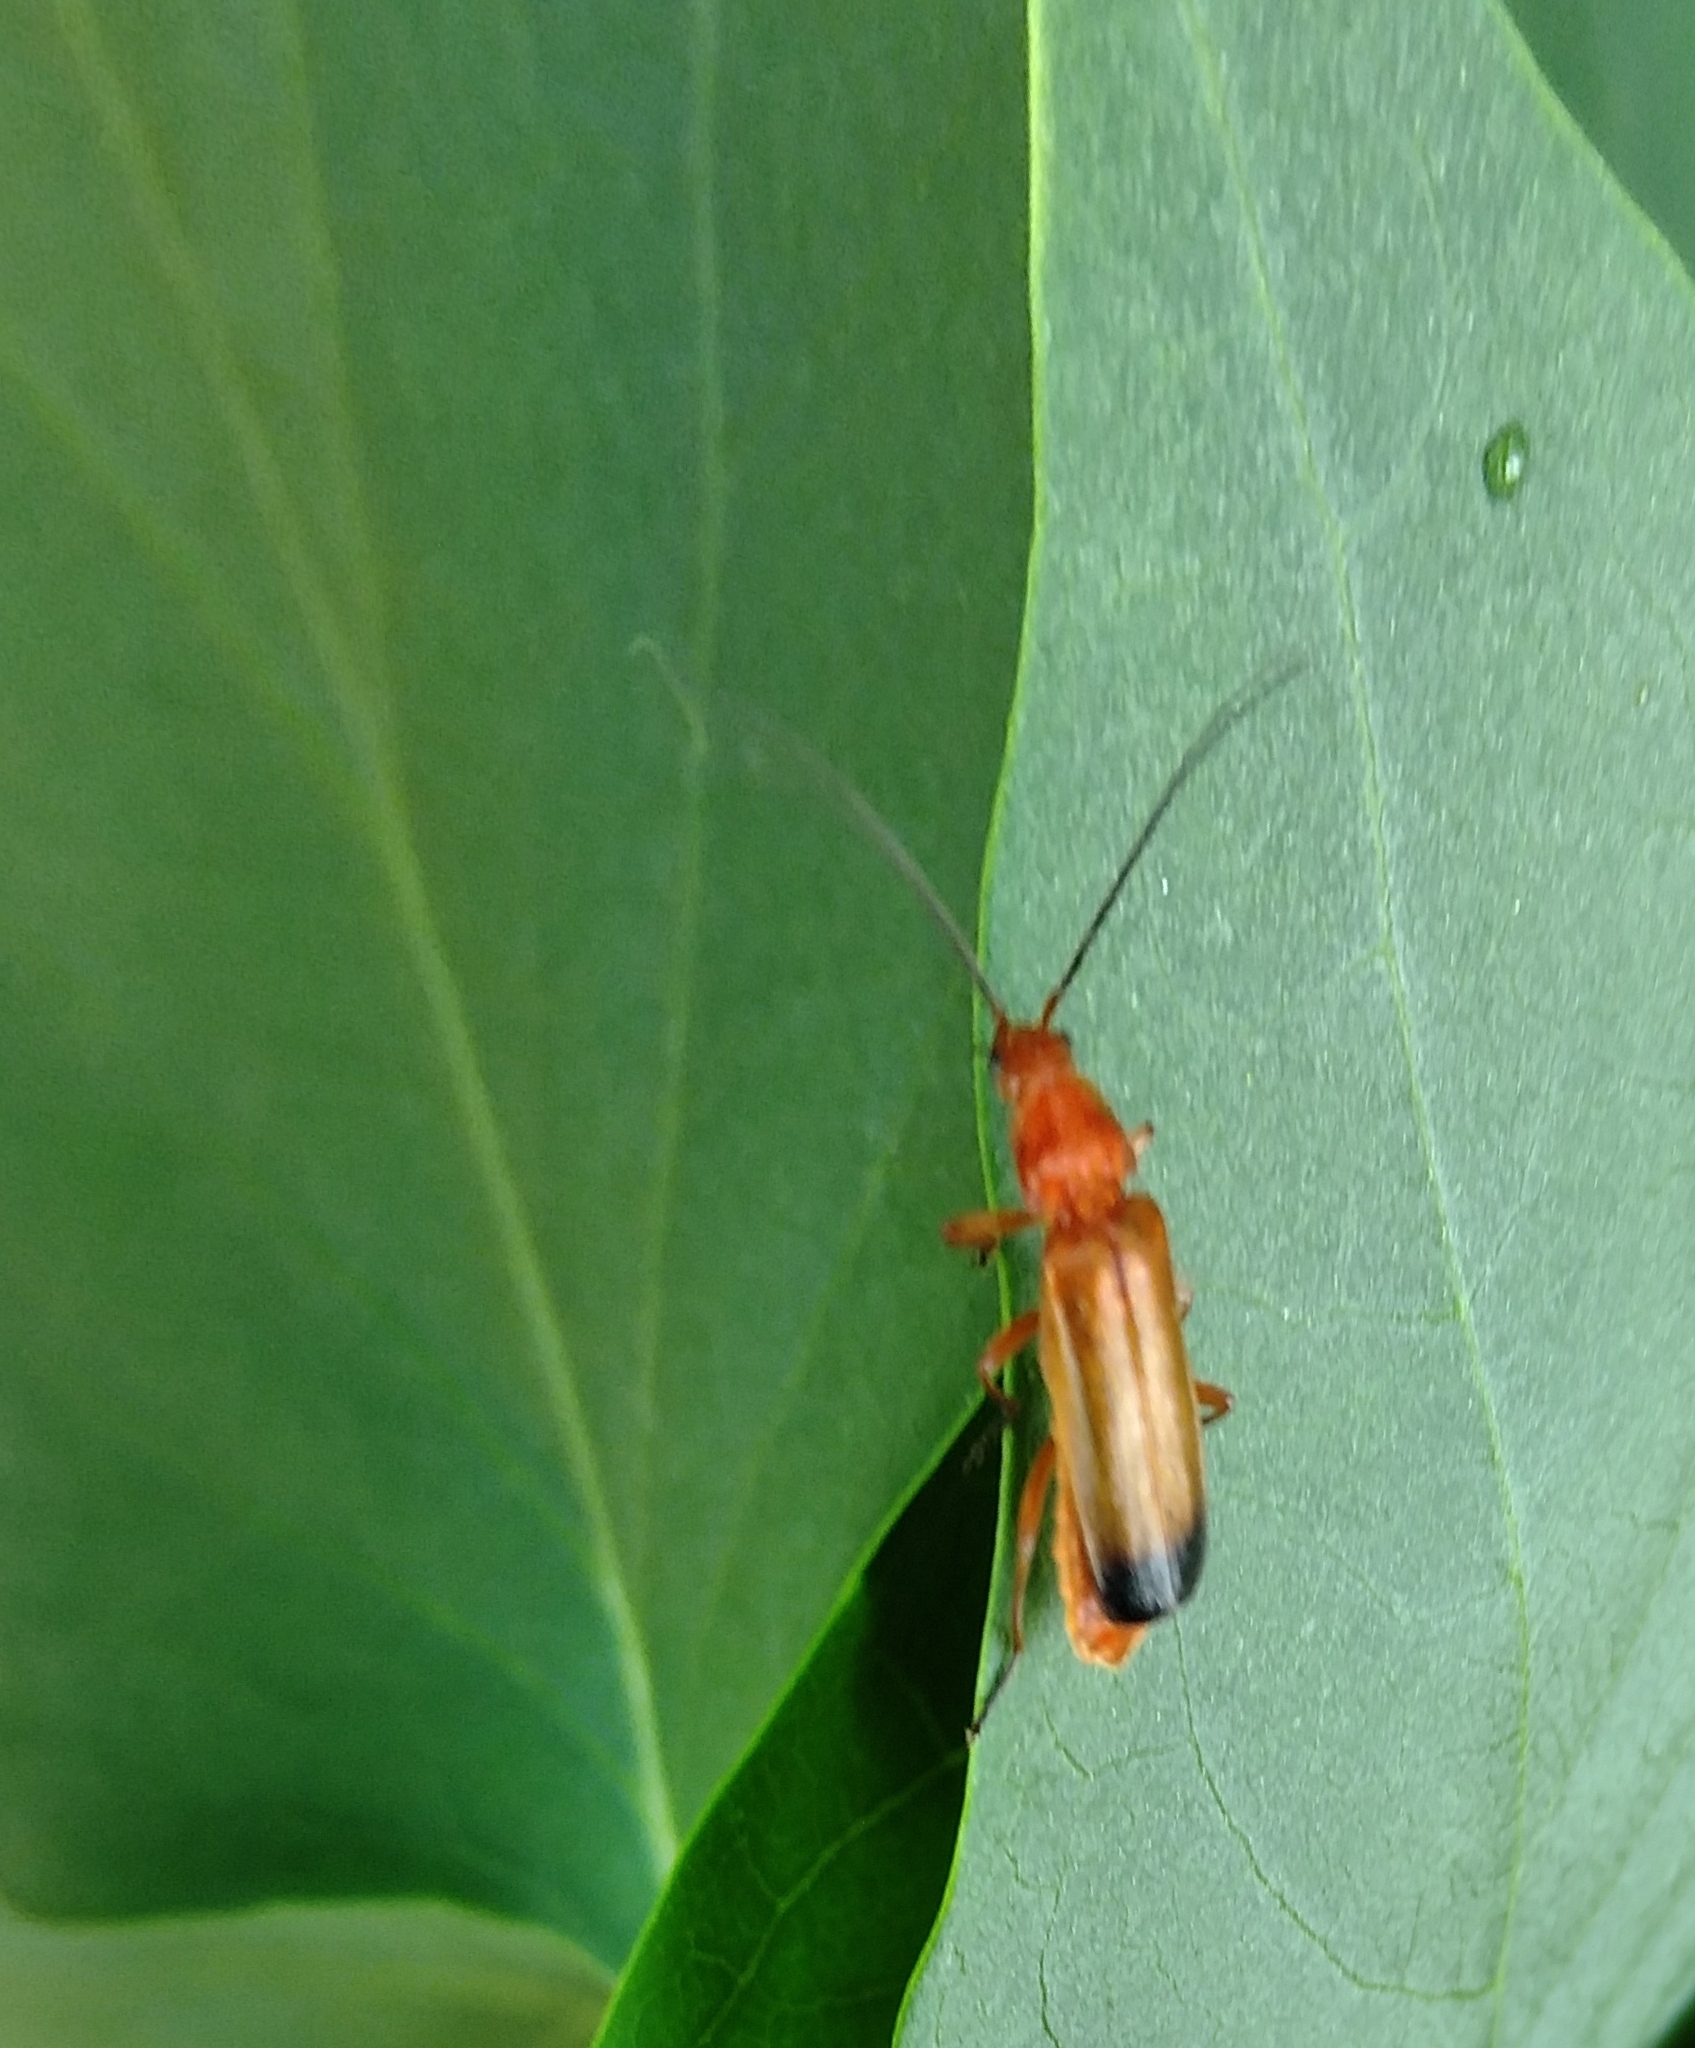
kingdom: Animalia
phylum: Arthropoda
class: Insecta
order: Coleoptera
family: Cantharidae
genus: Rhagonycha
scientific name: Rhagonycha fulva
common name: Common red soldier beetle
